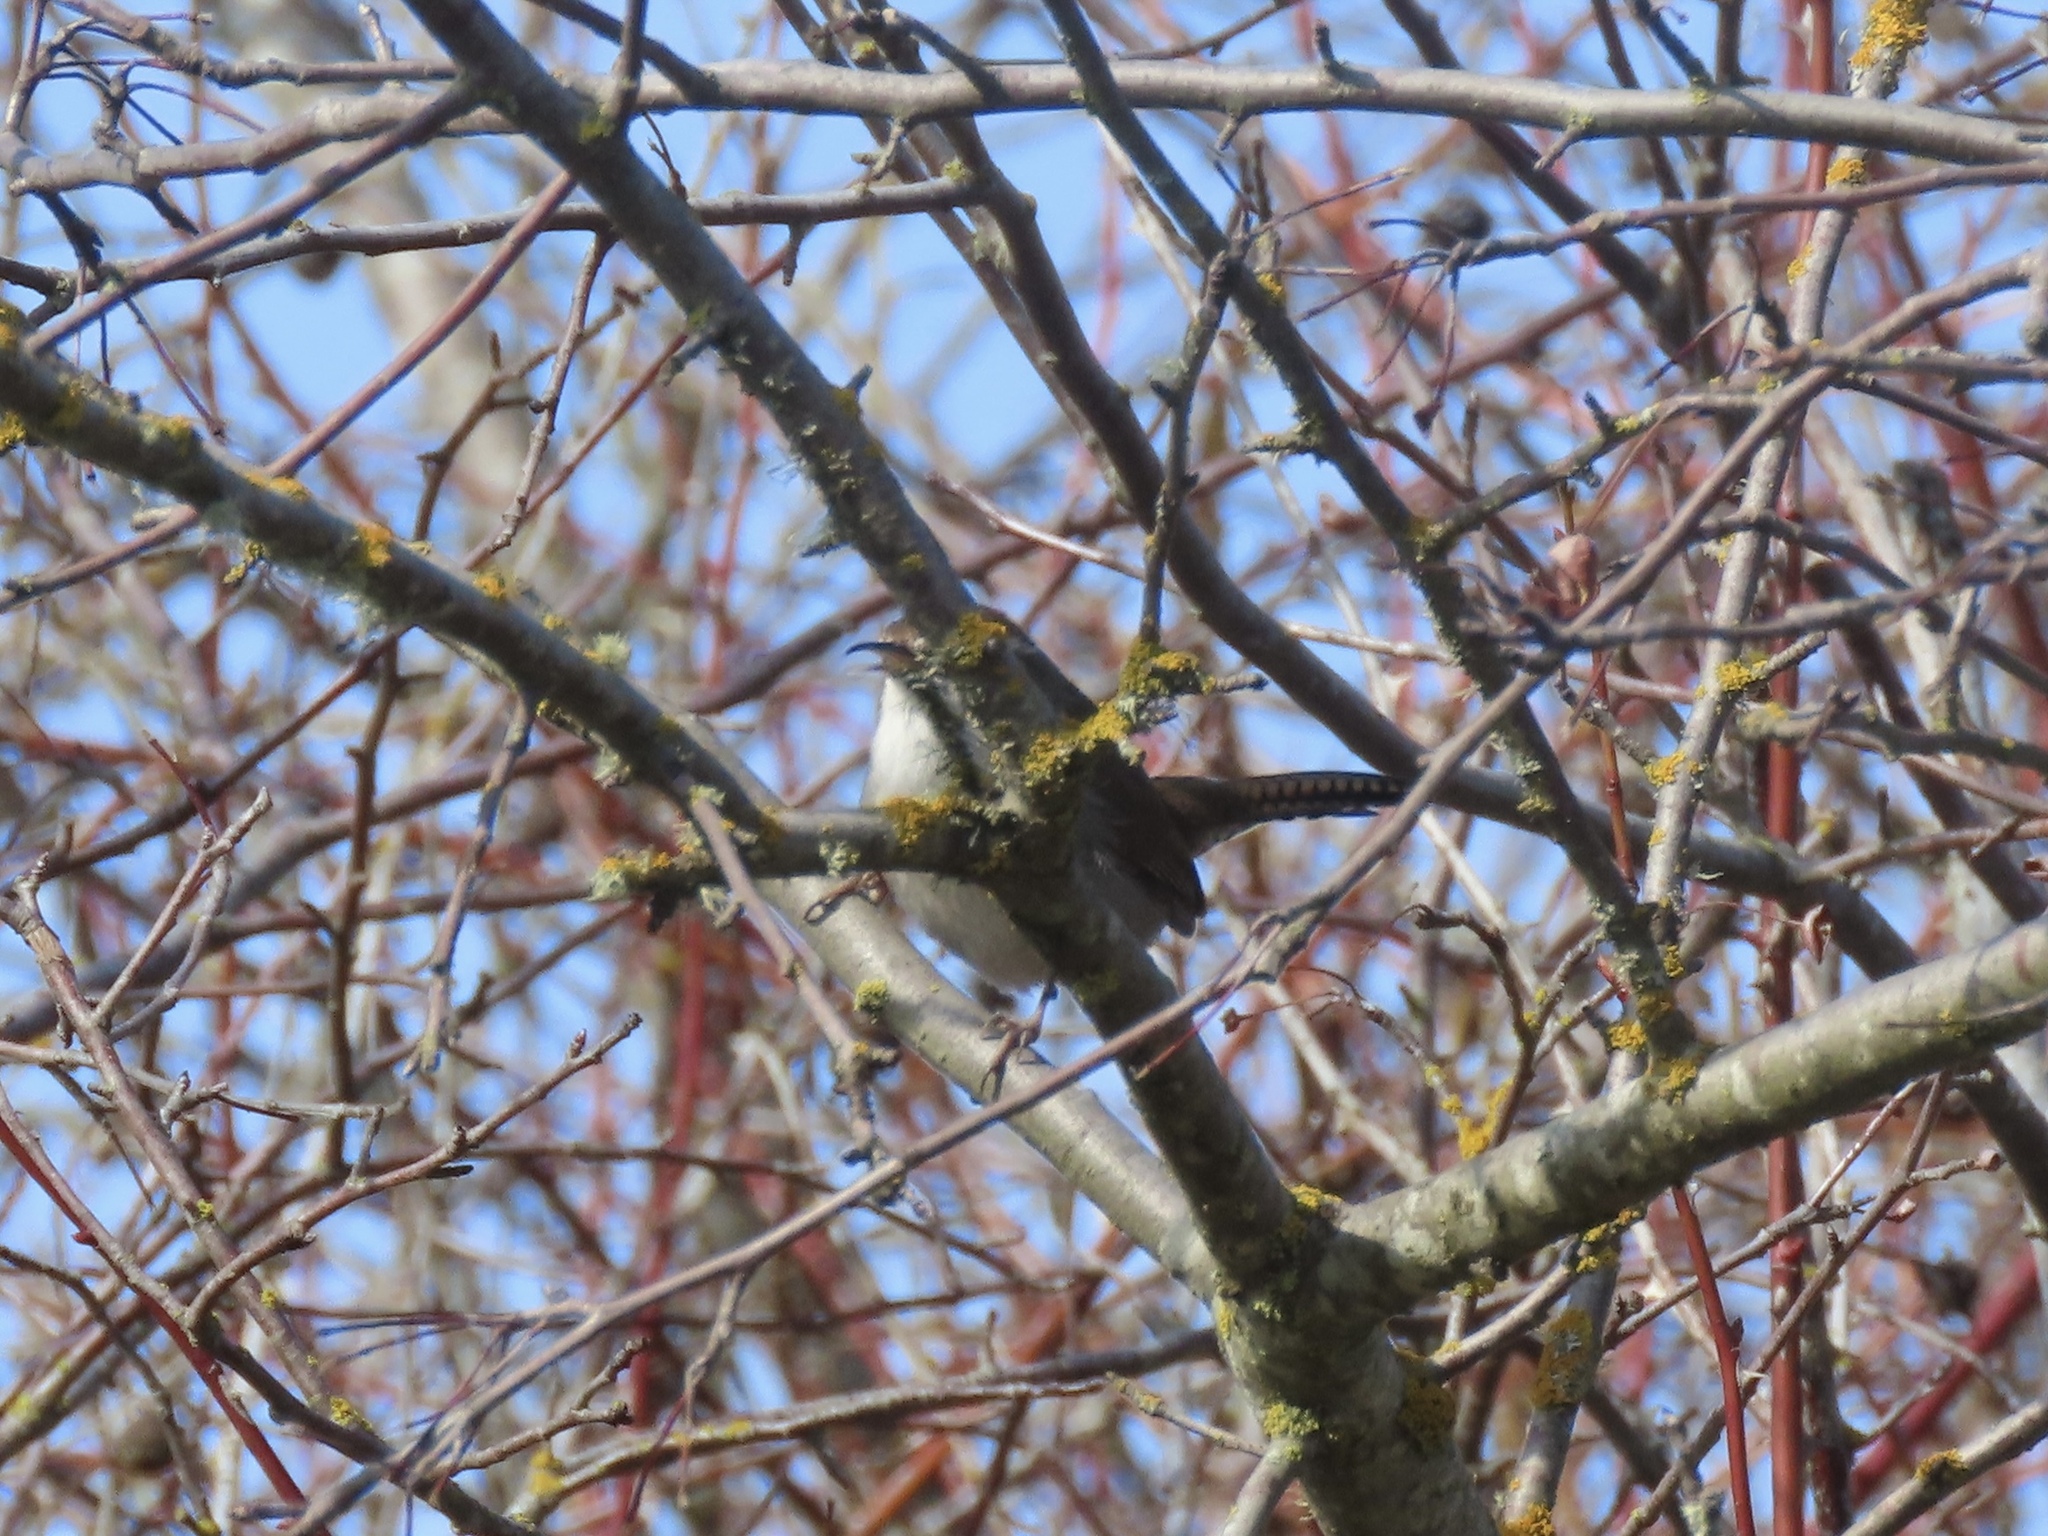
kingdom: Animalia
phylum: Chordata
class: Aves
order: Passeriformes
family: Troglodytidae
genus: Thryomanes
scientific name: Thryomanes bewickii
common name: Bewick's wren
